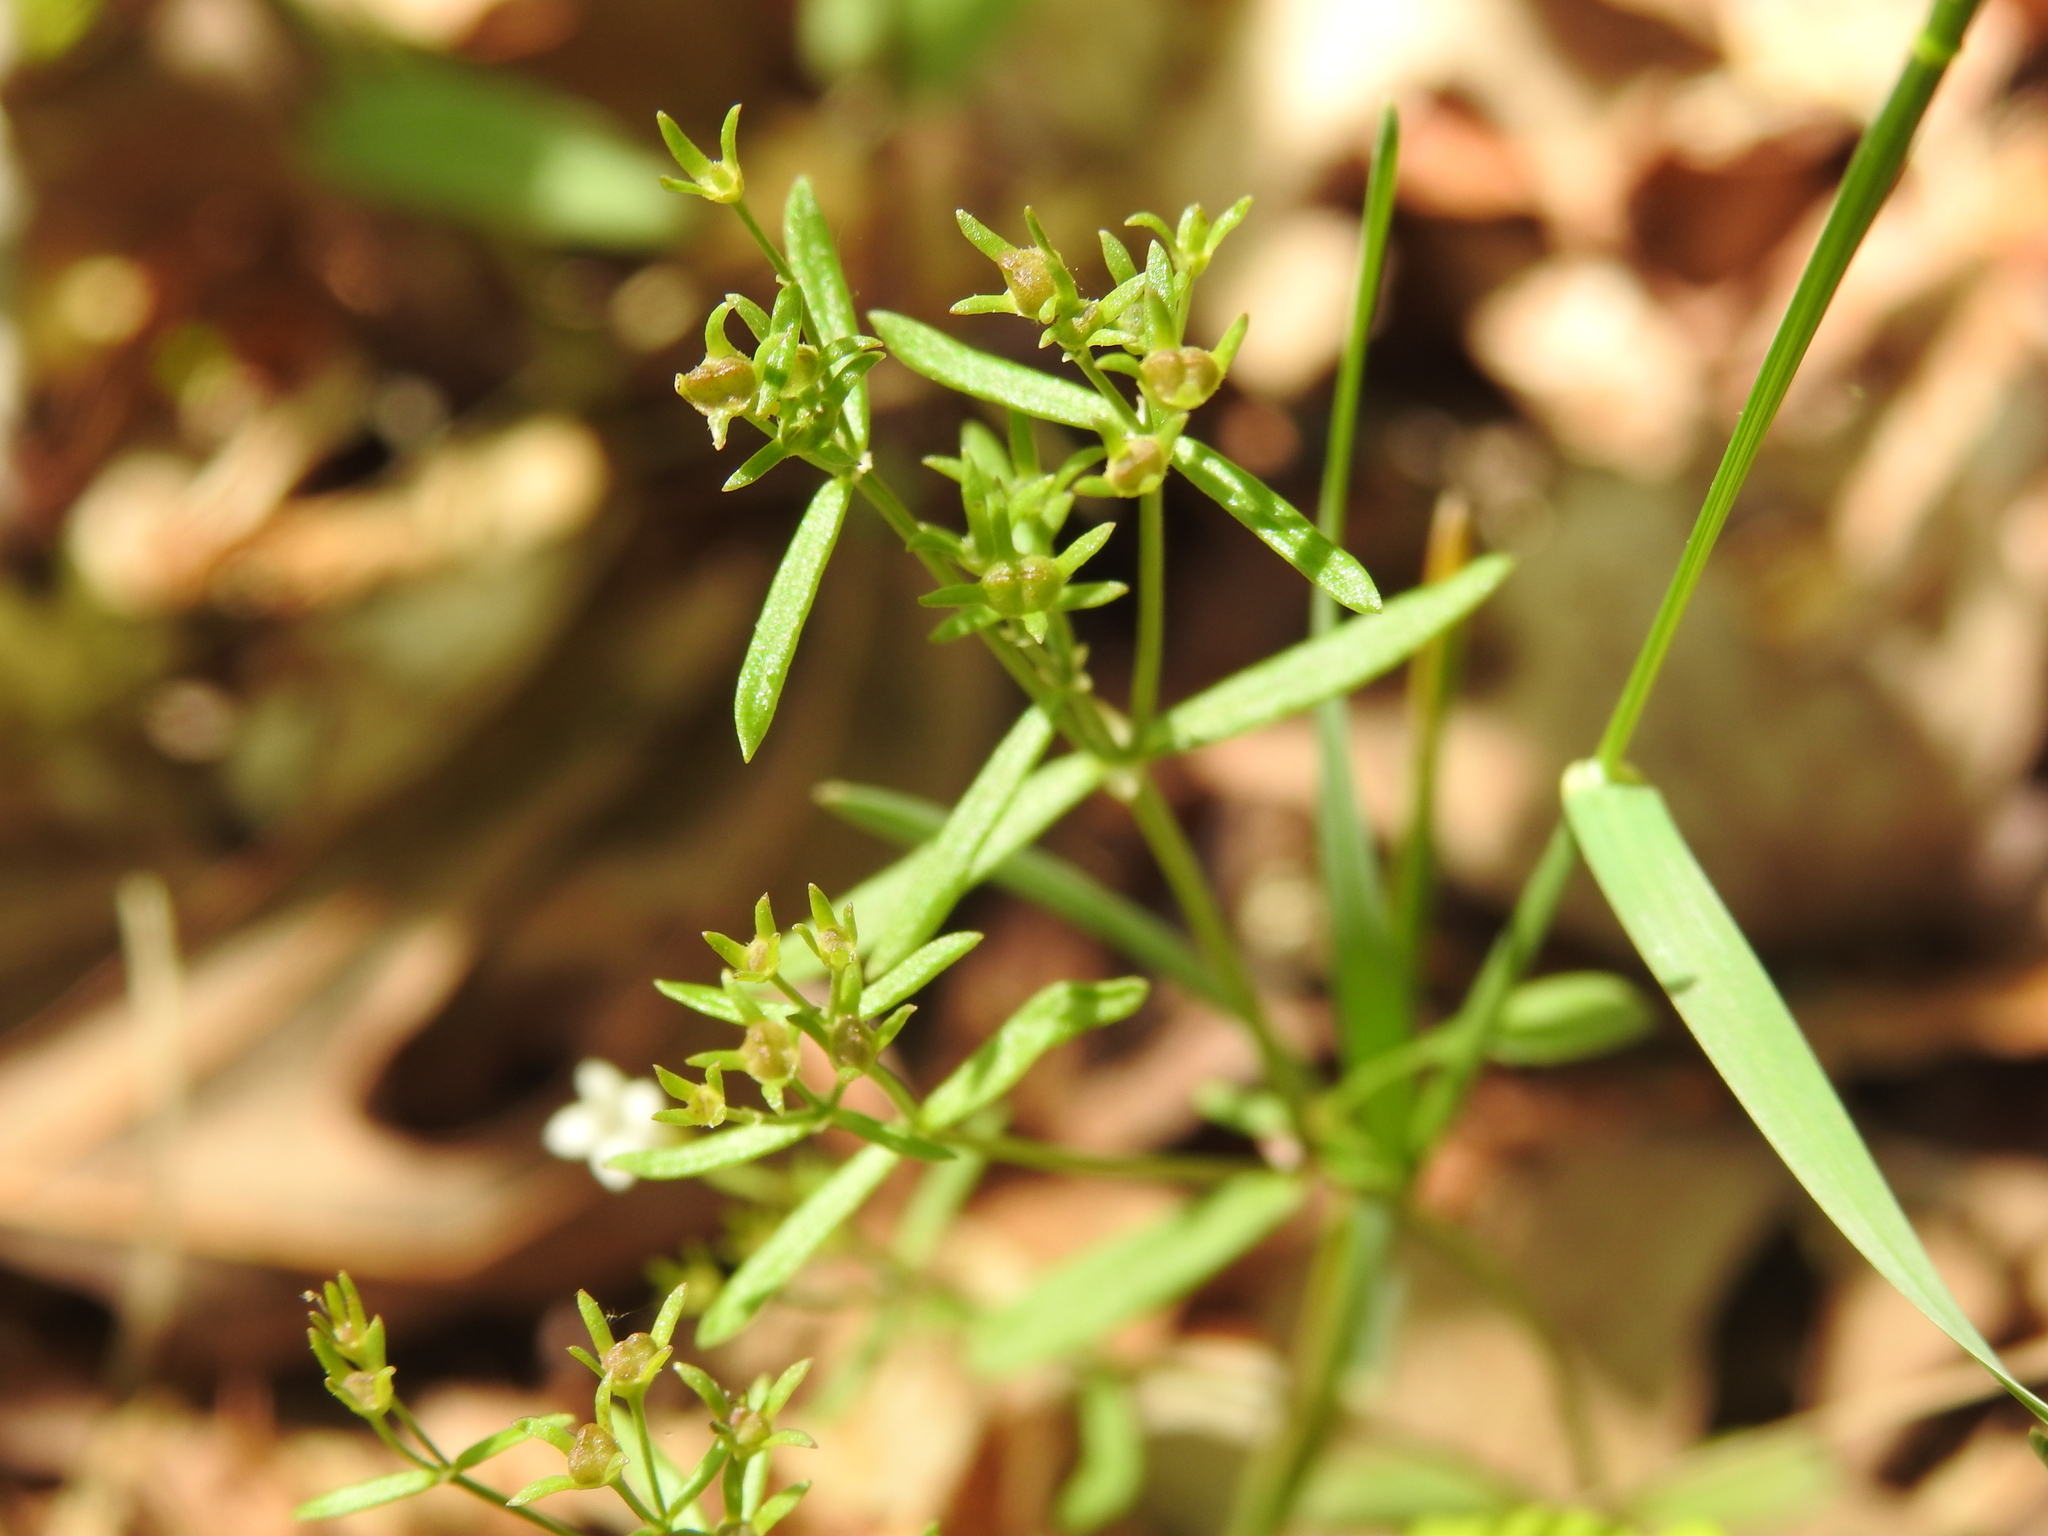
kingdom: Plantae
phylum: Tracheophyta
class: Magnoliopsida
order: Gentianales
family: Rubiaceae
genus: Houstonia
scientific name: Houstonia longifolia
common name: Long-leaved bluets
